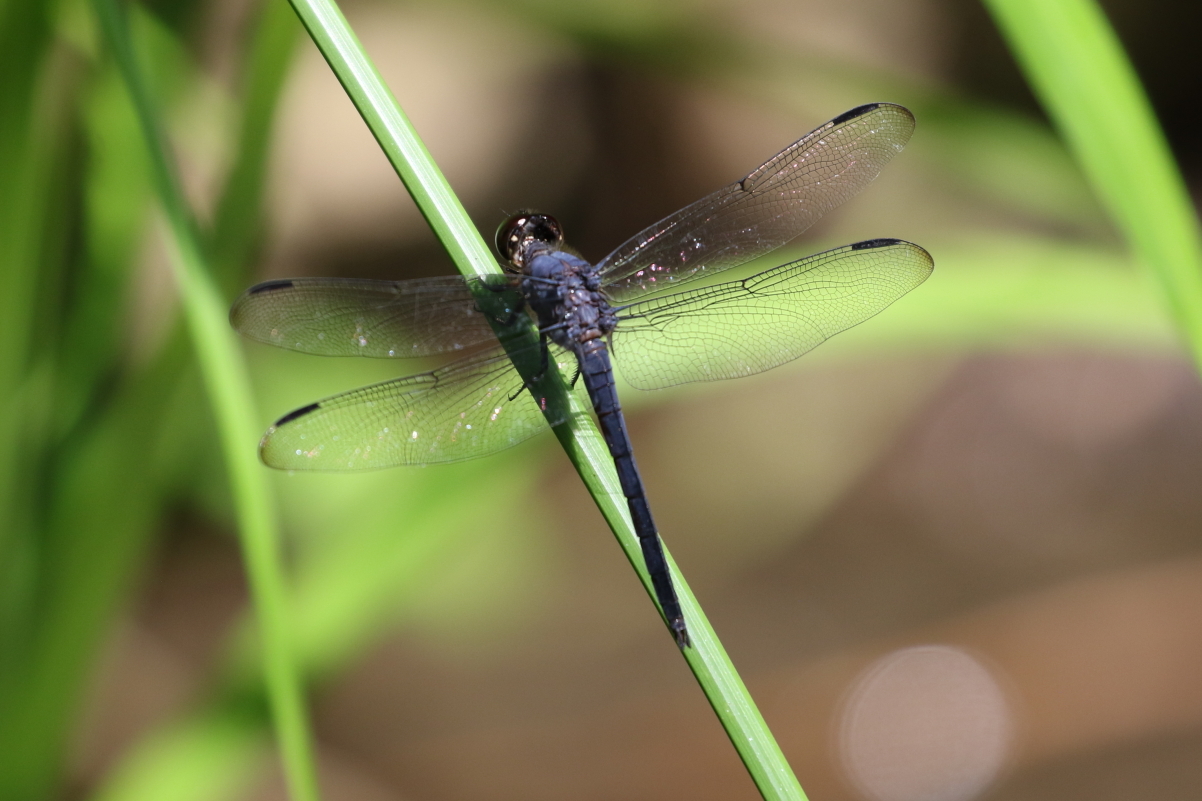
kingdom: Animalia
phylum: Arthropoda
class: Insecta
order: Odonata
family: Libellulidae
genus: Libellula
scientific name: Libellula incesta
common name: Slaty skimmer
